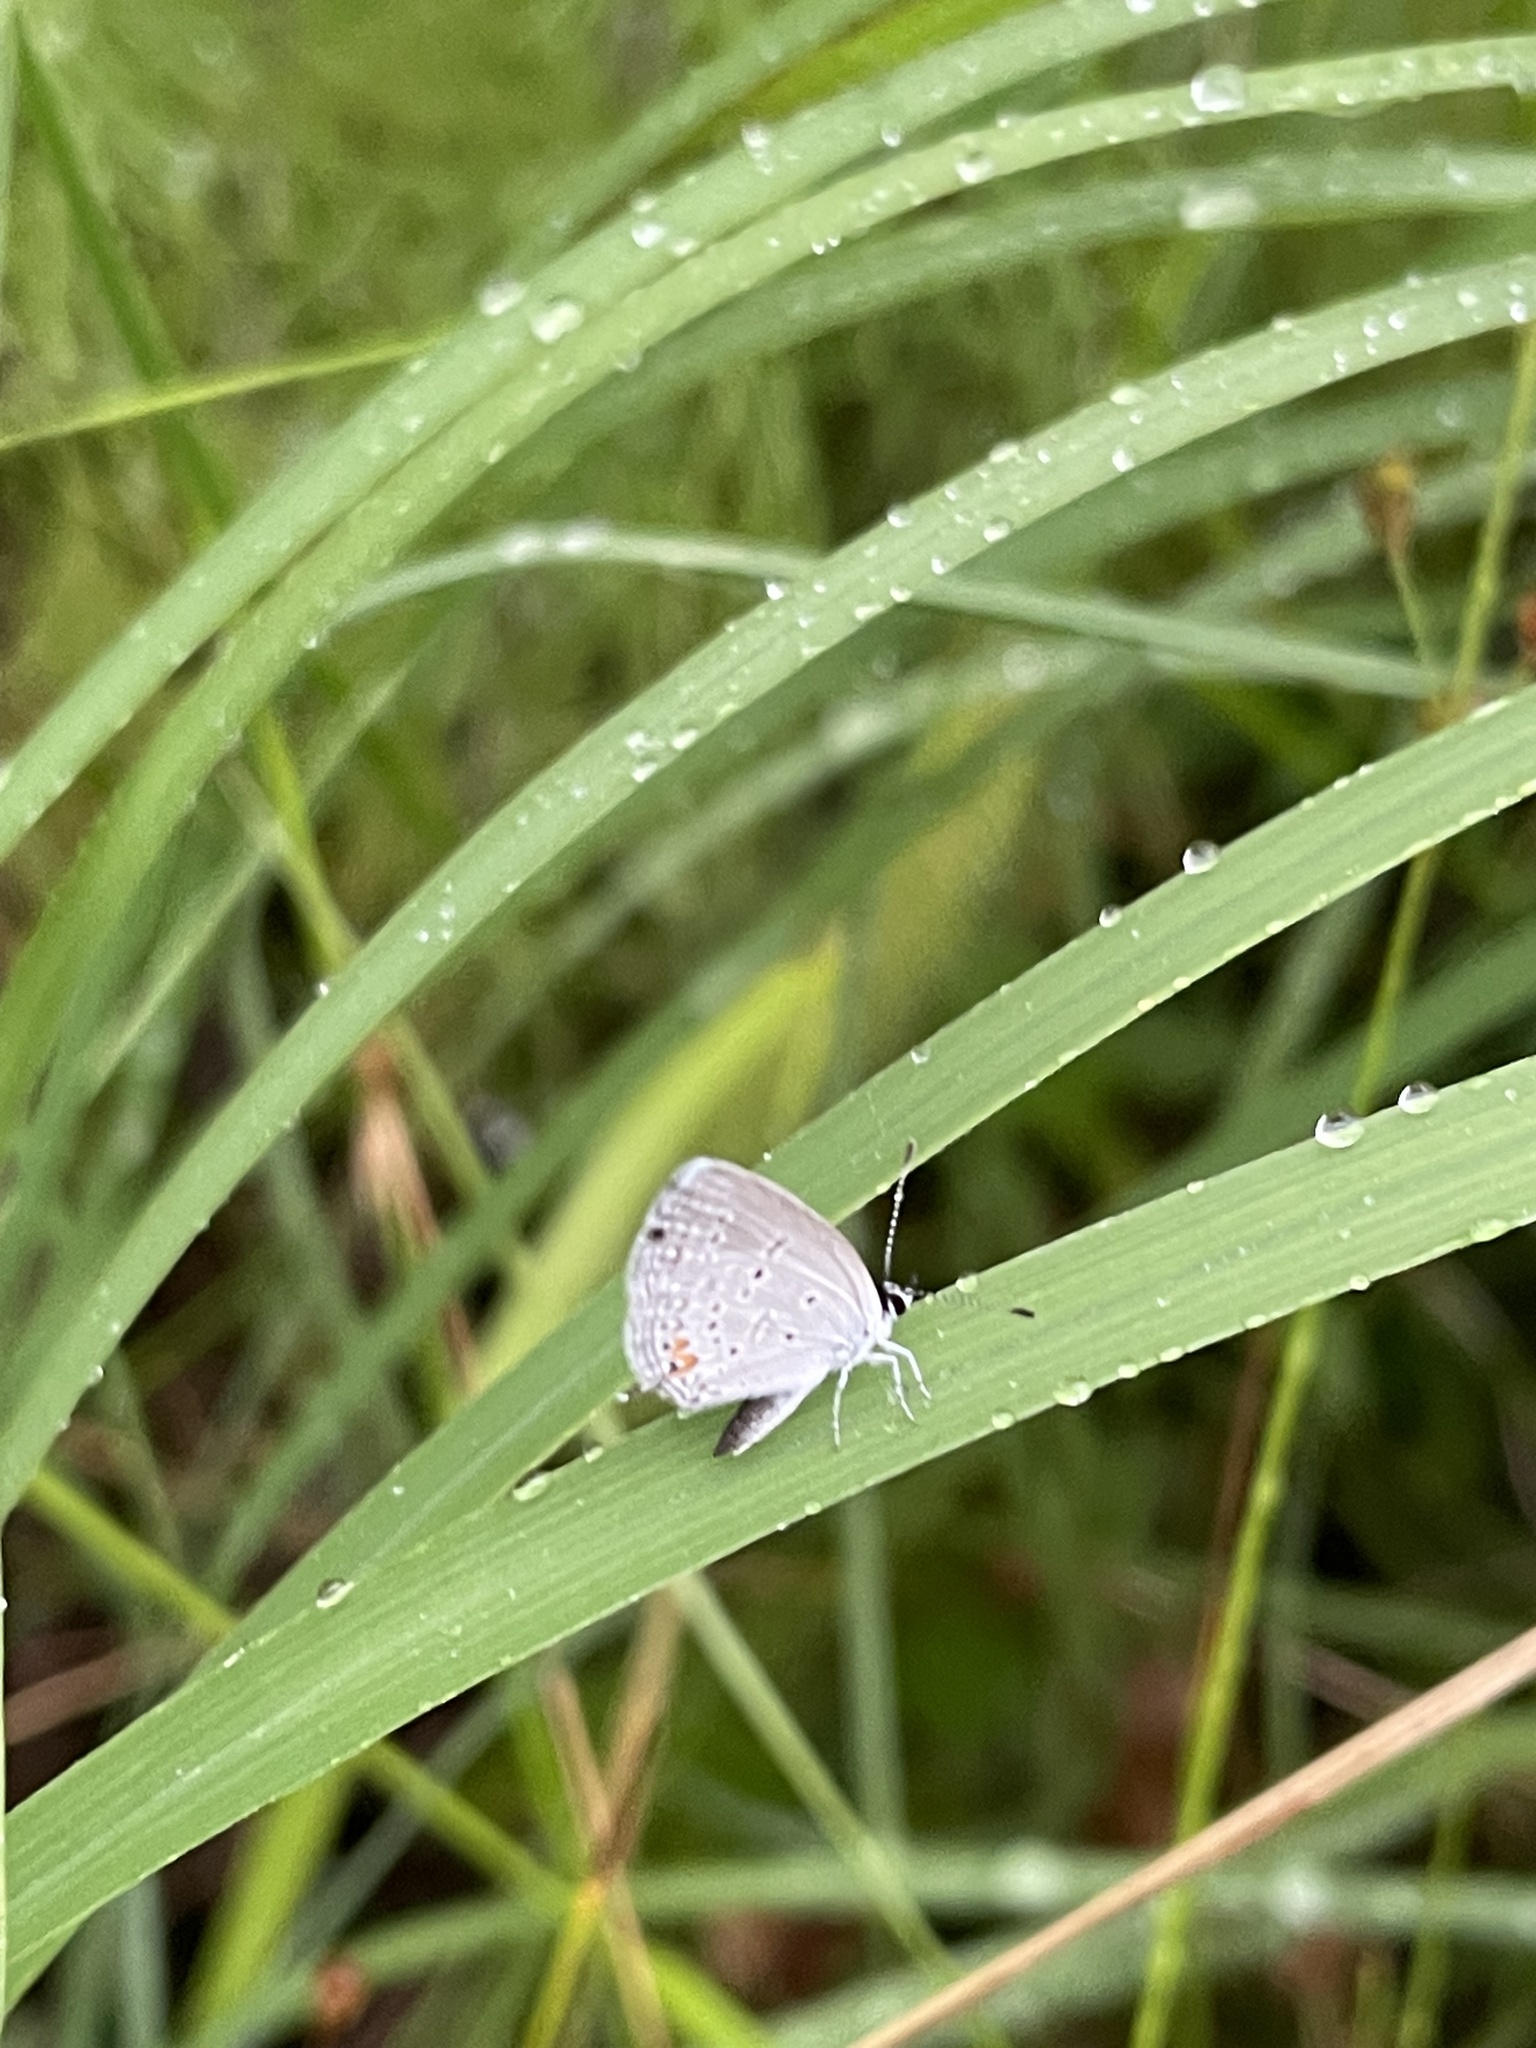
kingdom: Animalia
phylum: Arthropoda
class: Insecta
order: Lepidoptera
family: Lycaenidae
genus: Elkalyce
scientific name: Elkalyce comyntas
